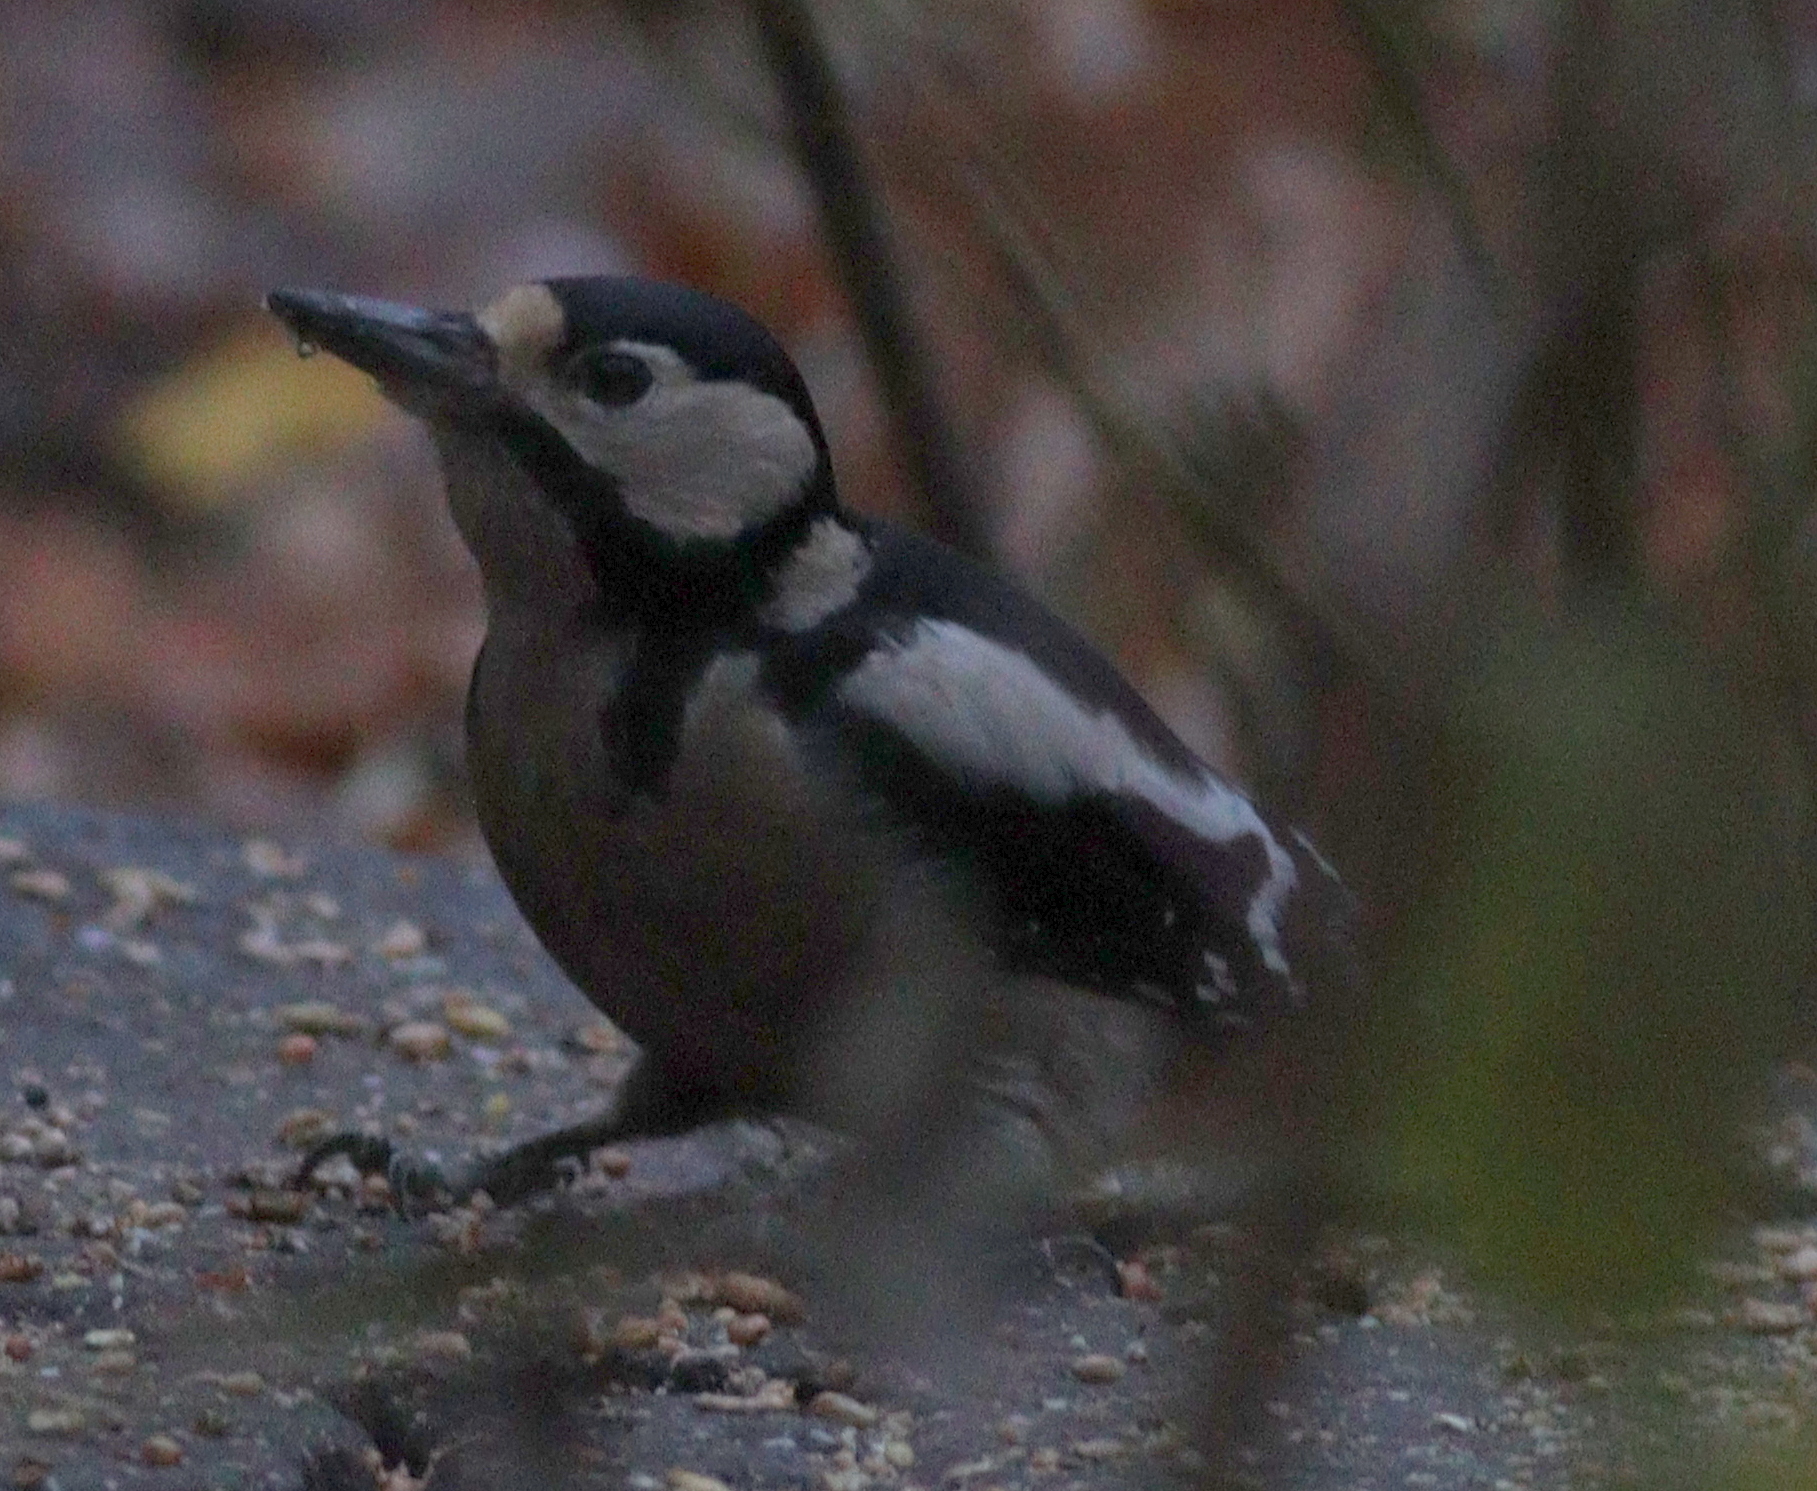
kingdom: Animalia
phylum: Chordata
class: Aves
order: Piciformes
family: Picidae
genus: Dendrocopos
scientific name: Dendrocopos major
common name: Great spotted woodpecker
